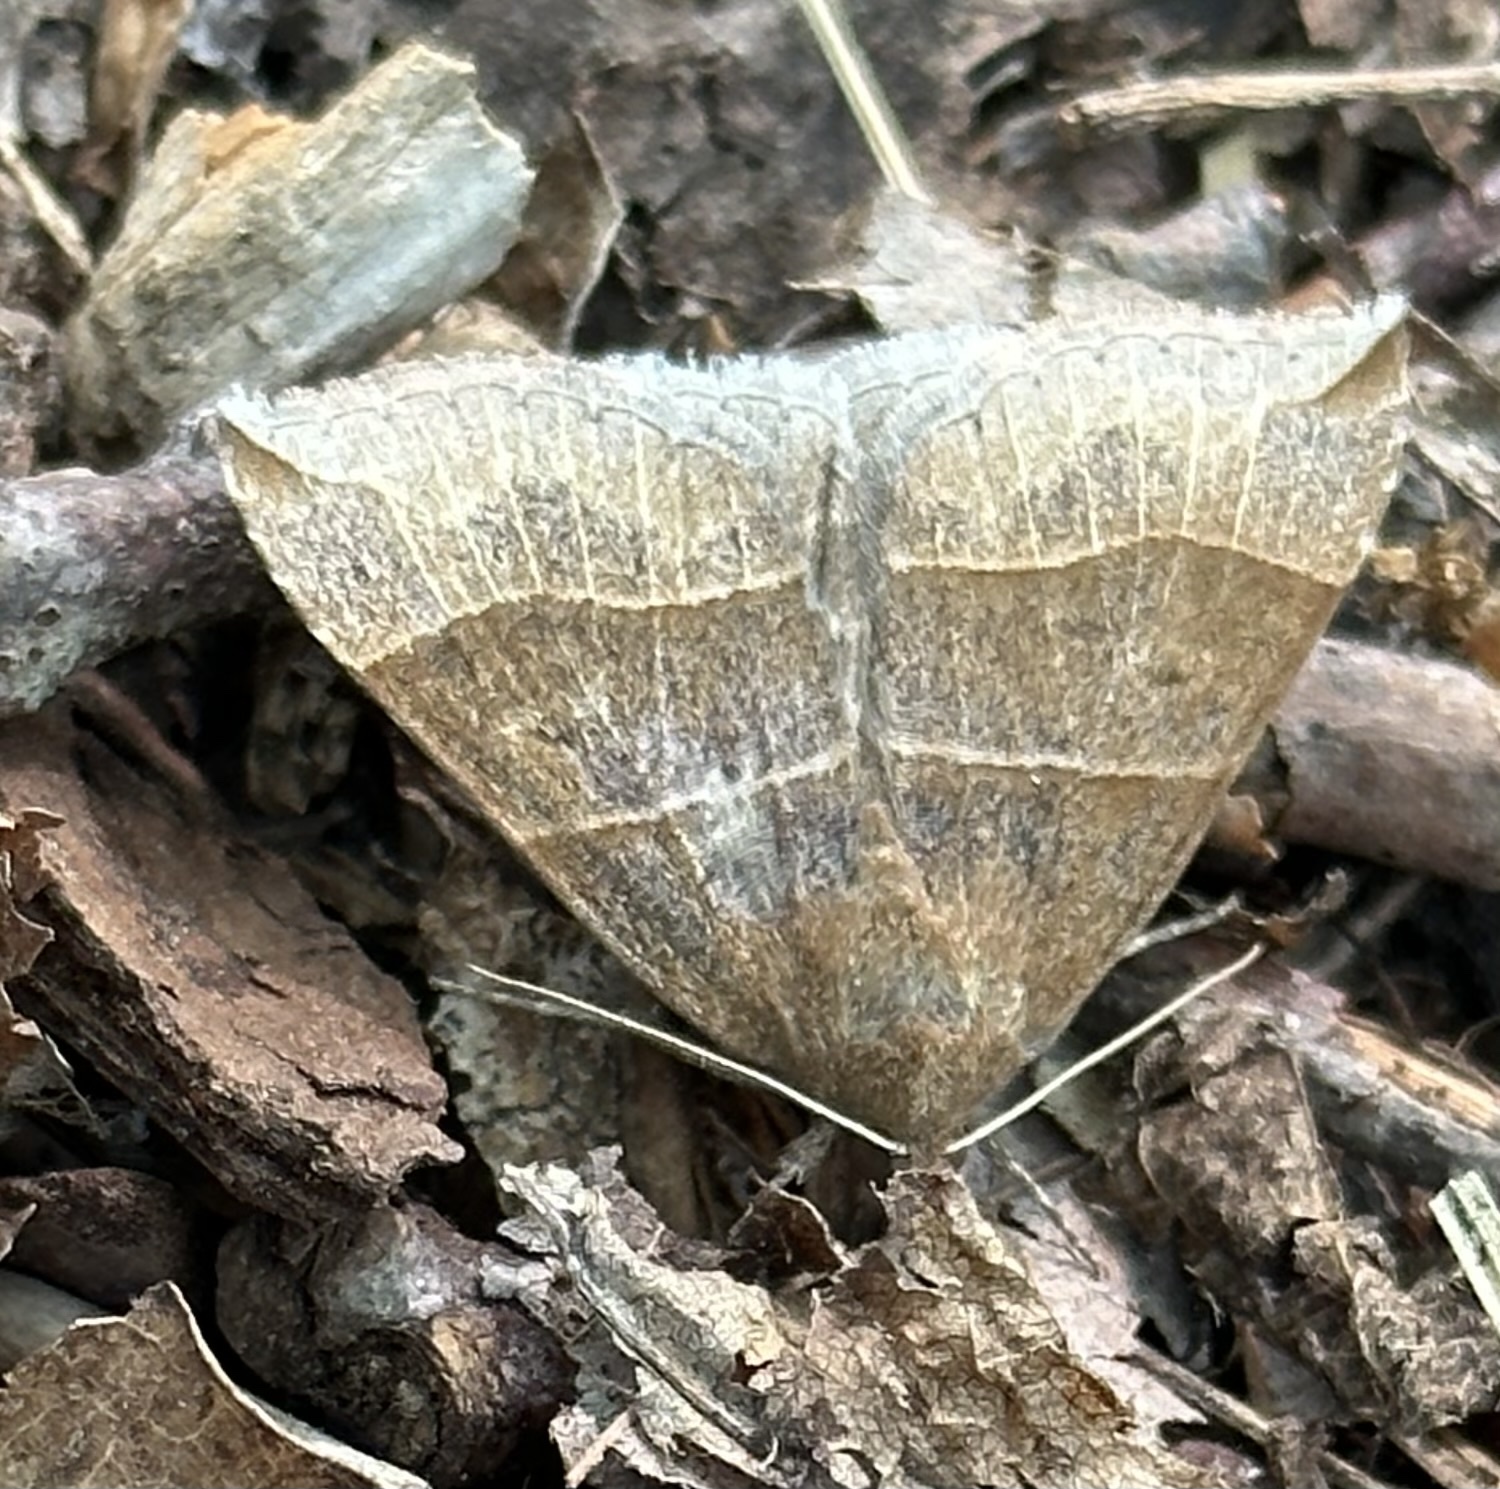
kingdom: Animalia
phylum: Arthropoda
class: Insecta
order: Lepidoptera
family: Erebidae
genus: Parallelia
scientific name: Parallelia bistriaris
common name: Maple looper moth
